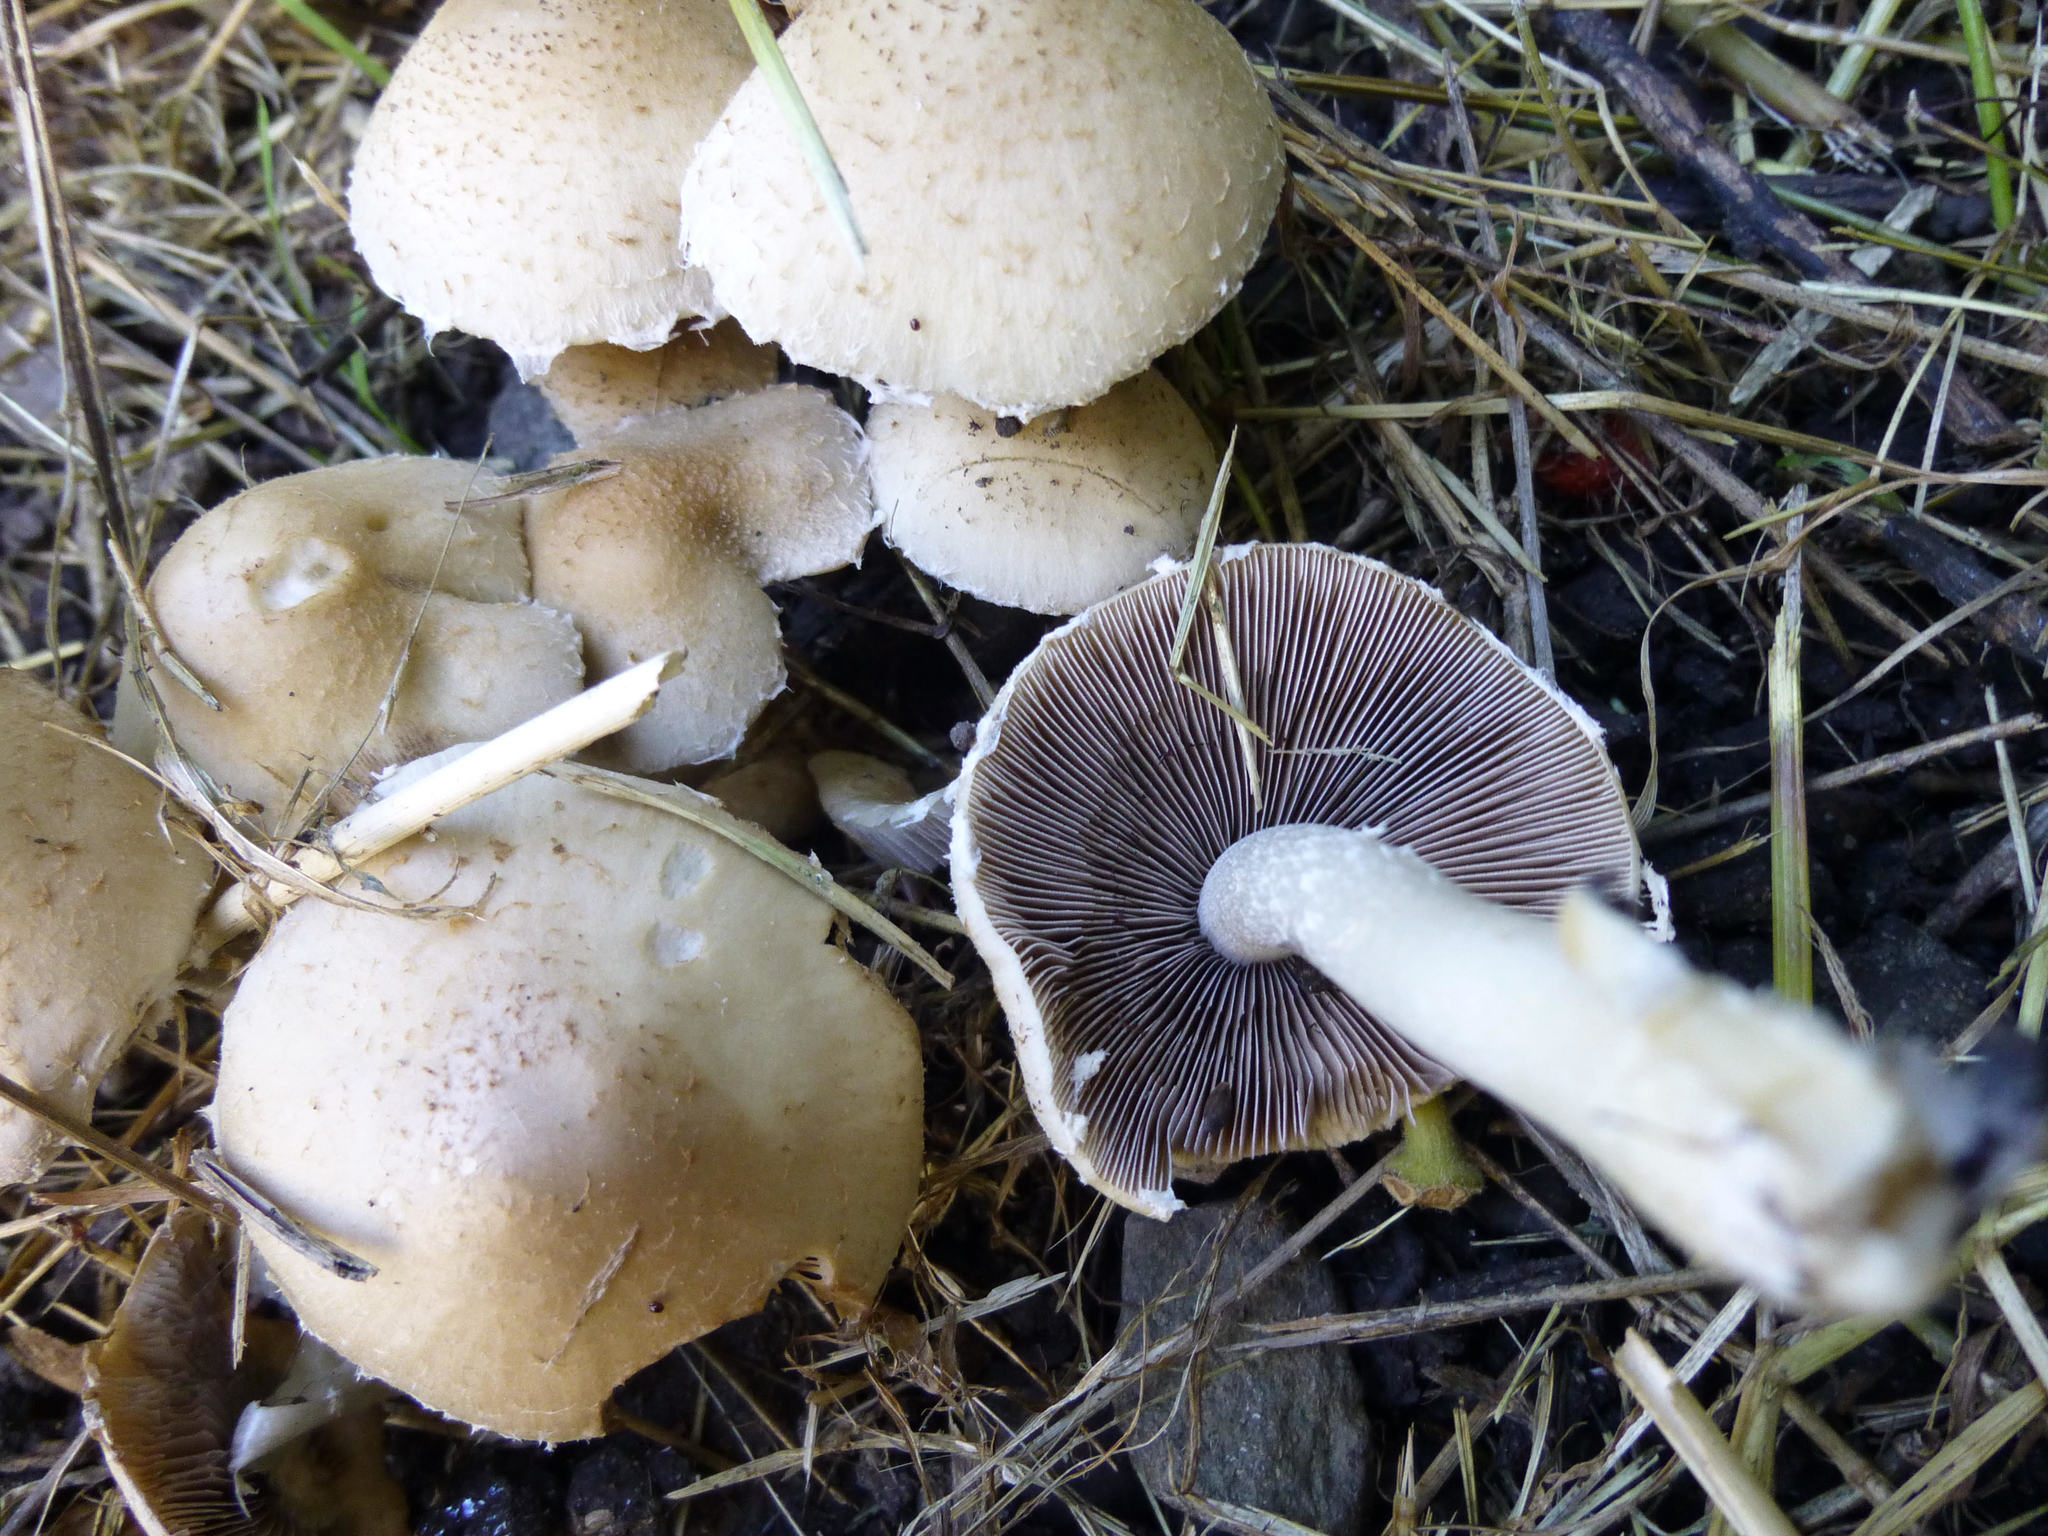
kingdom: Fungi
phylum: Basidiomycota
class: Agaricomycetes
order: Agaricales
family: Psathyrellaceae
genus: Candolleomyces
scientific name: Candolleomyces candolleanus
